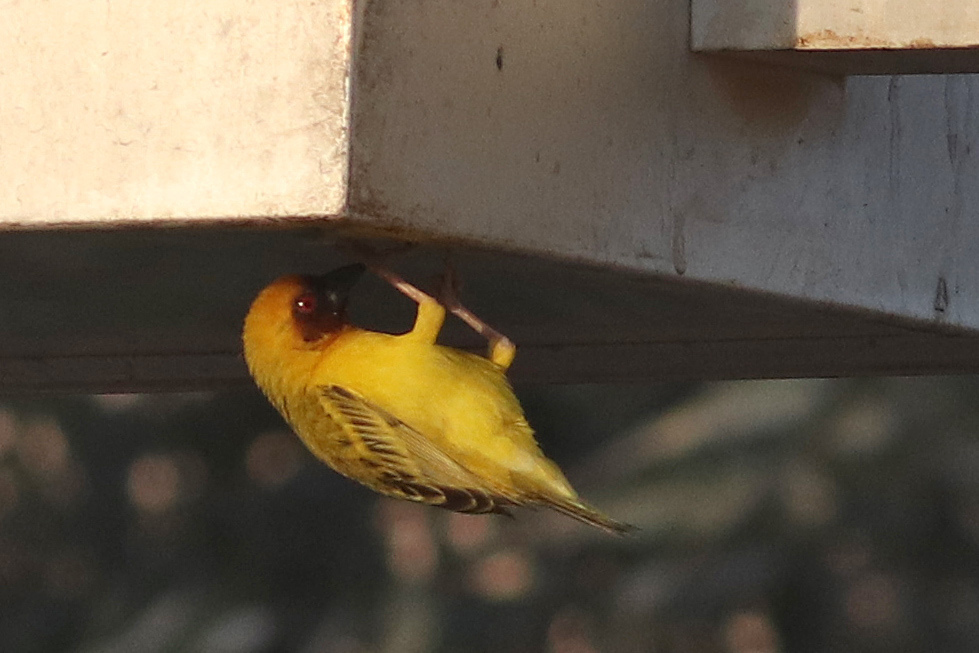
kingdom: Animalia
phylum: Chordata
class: Aves
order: Passeriformes
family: Ploceidae
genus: Ploceus
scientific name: Ploceus galbula
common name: Rüppell's weaver
